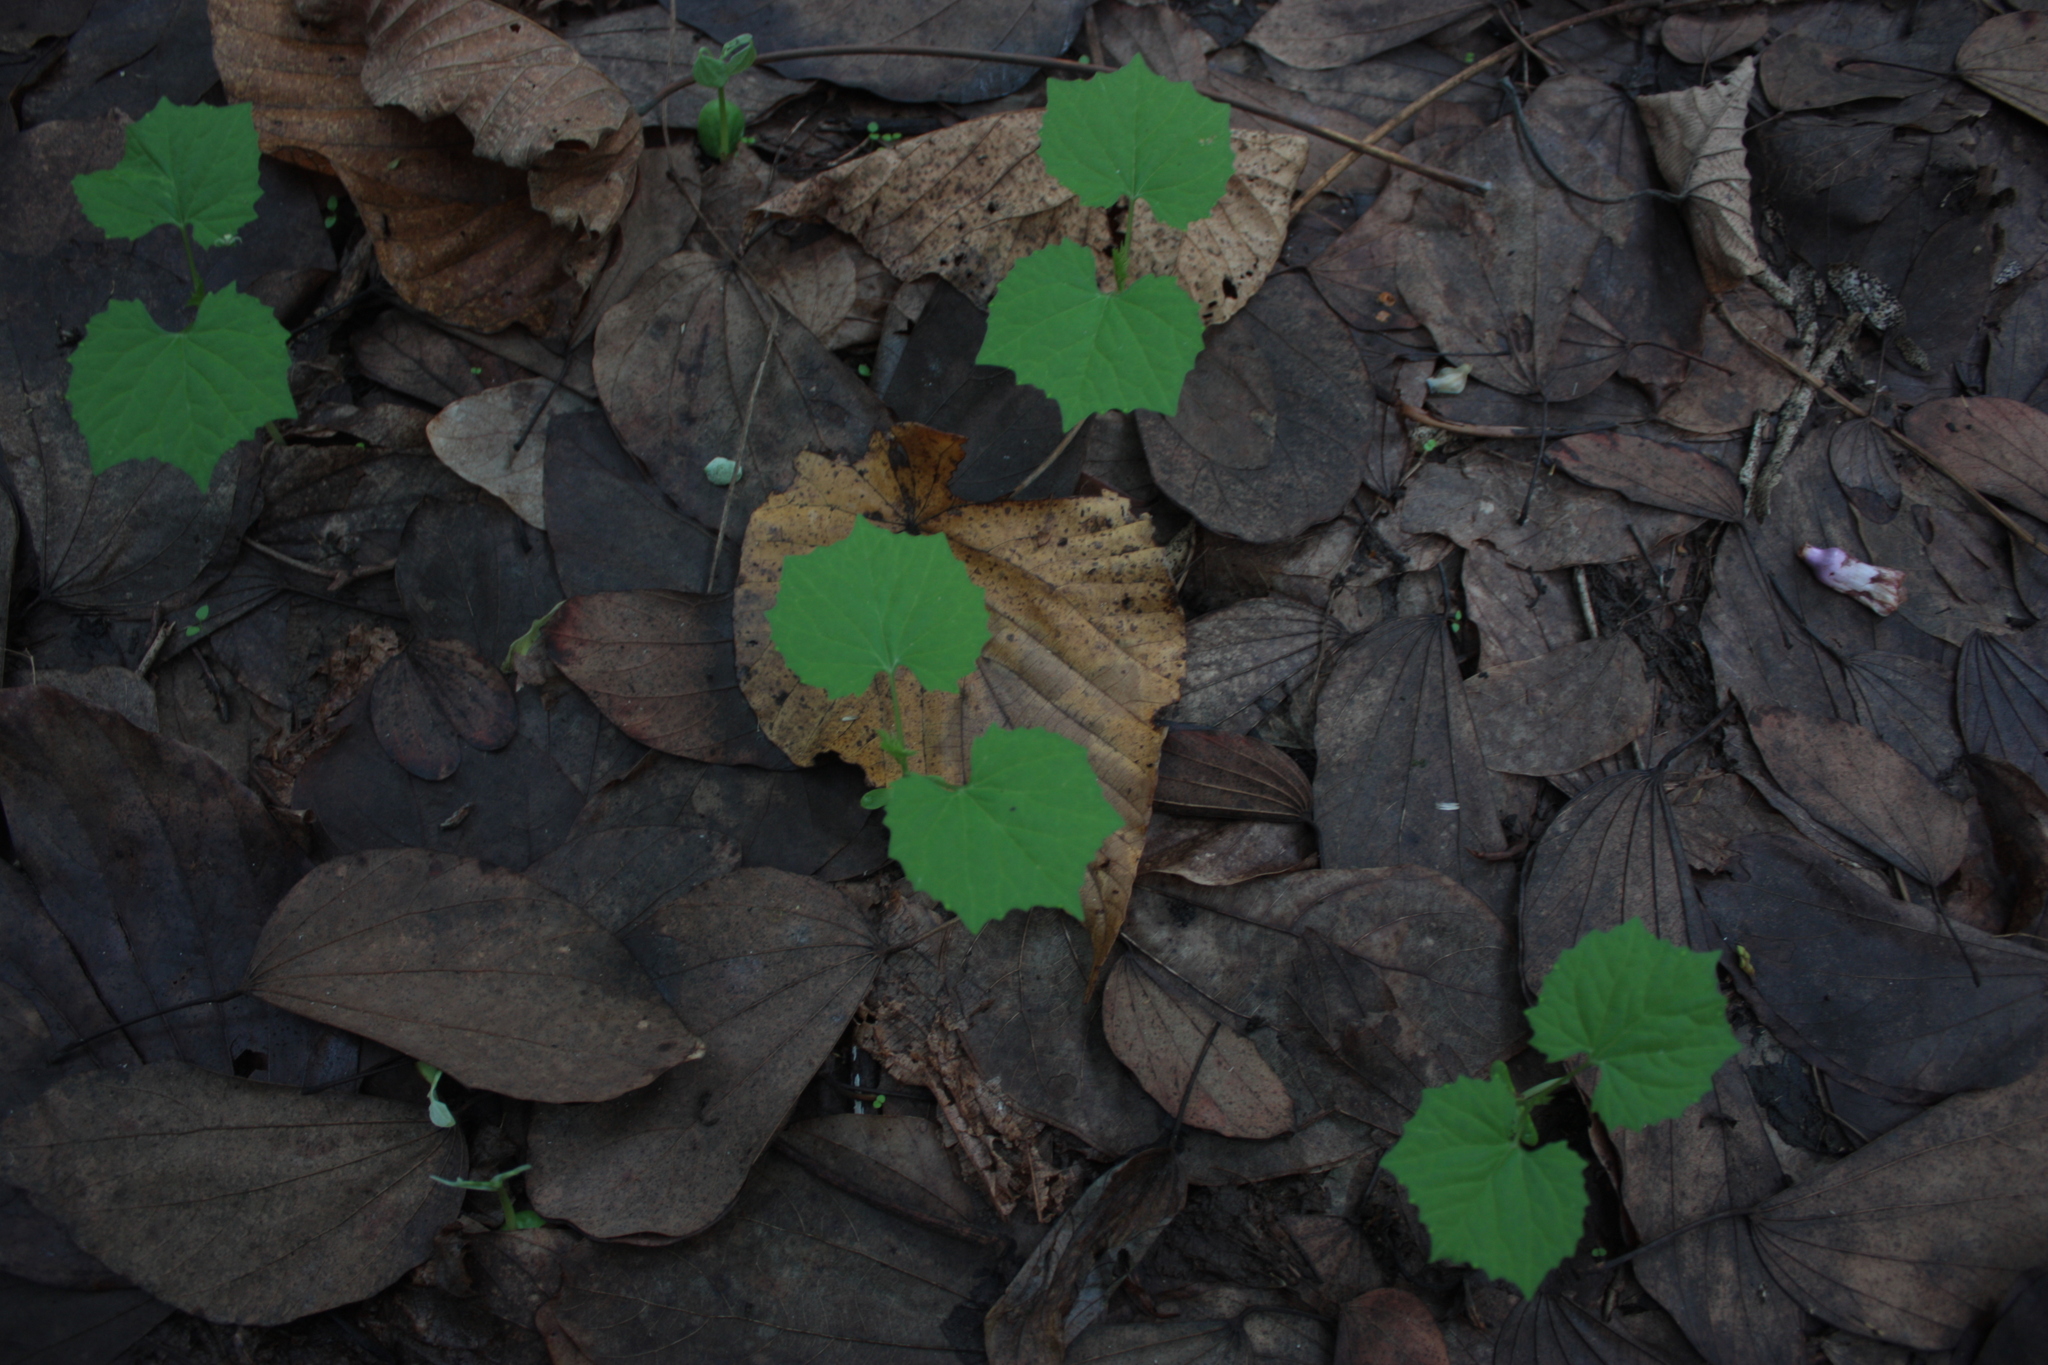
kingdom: Plantae
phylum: Tracheophyta
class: Magnoliopsida
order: Malvales
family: Malvaceae
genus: Urena
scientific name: Urena lobata
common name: Caesarweed
